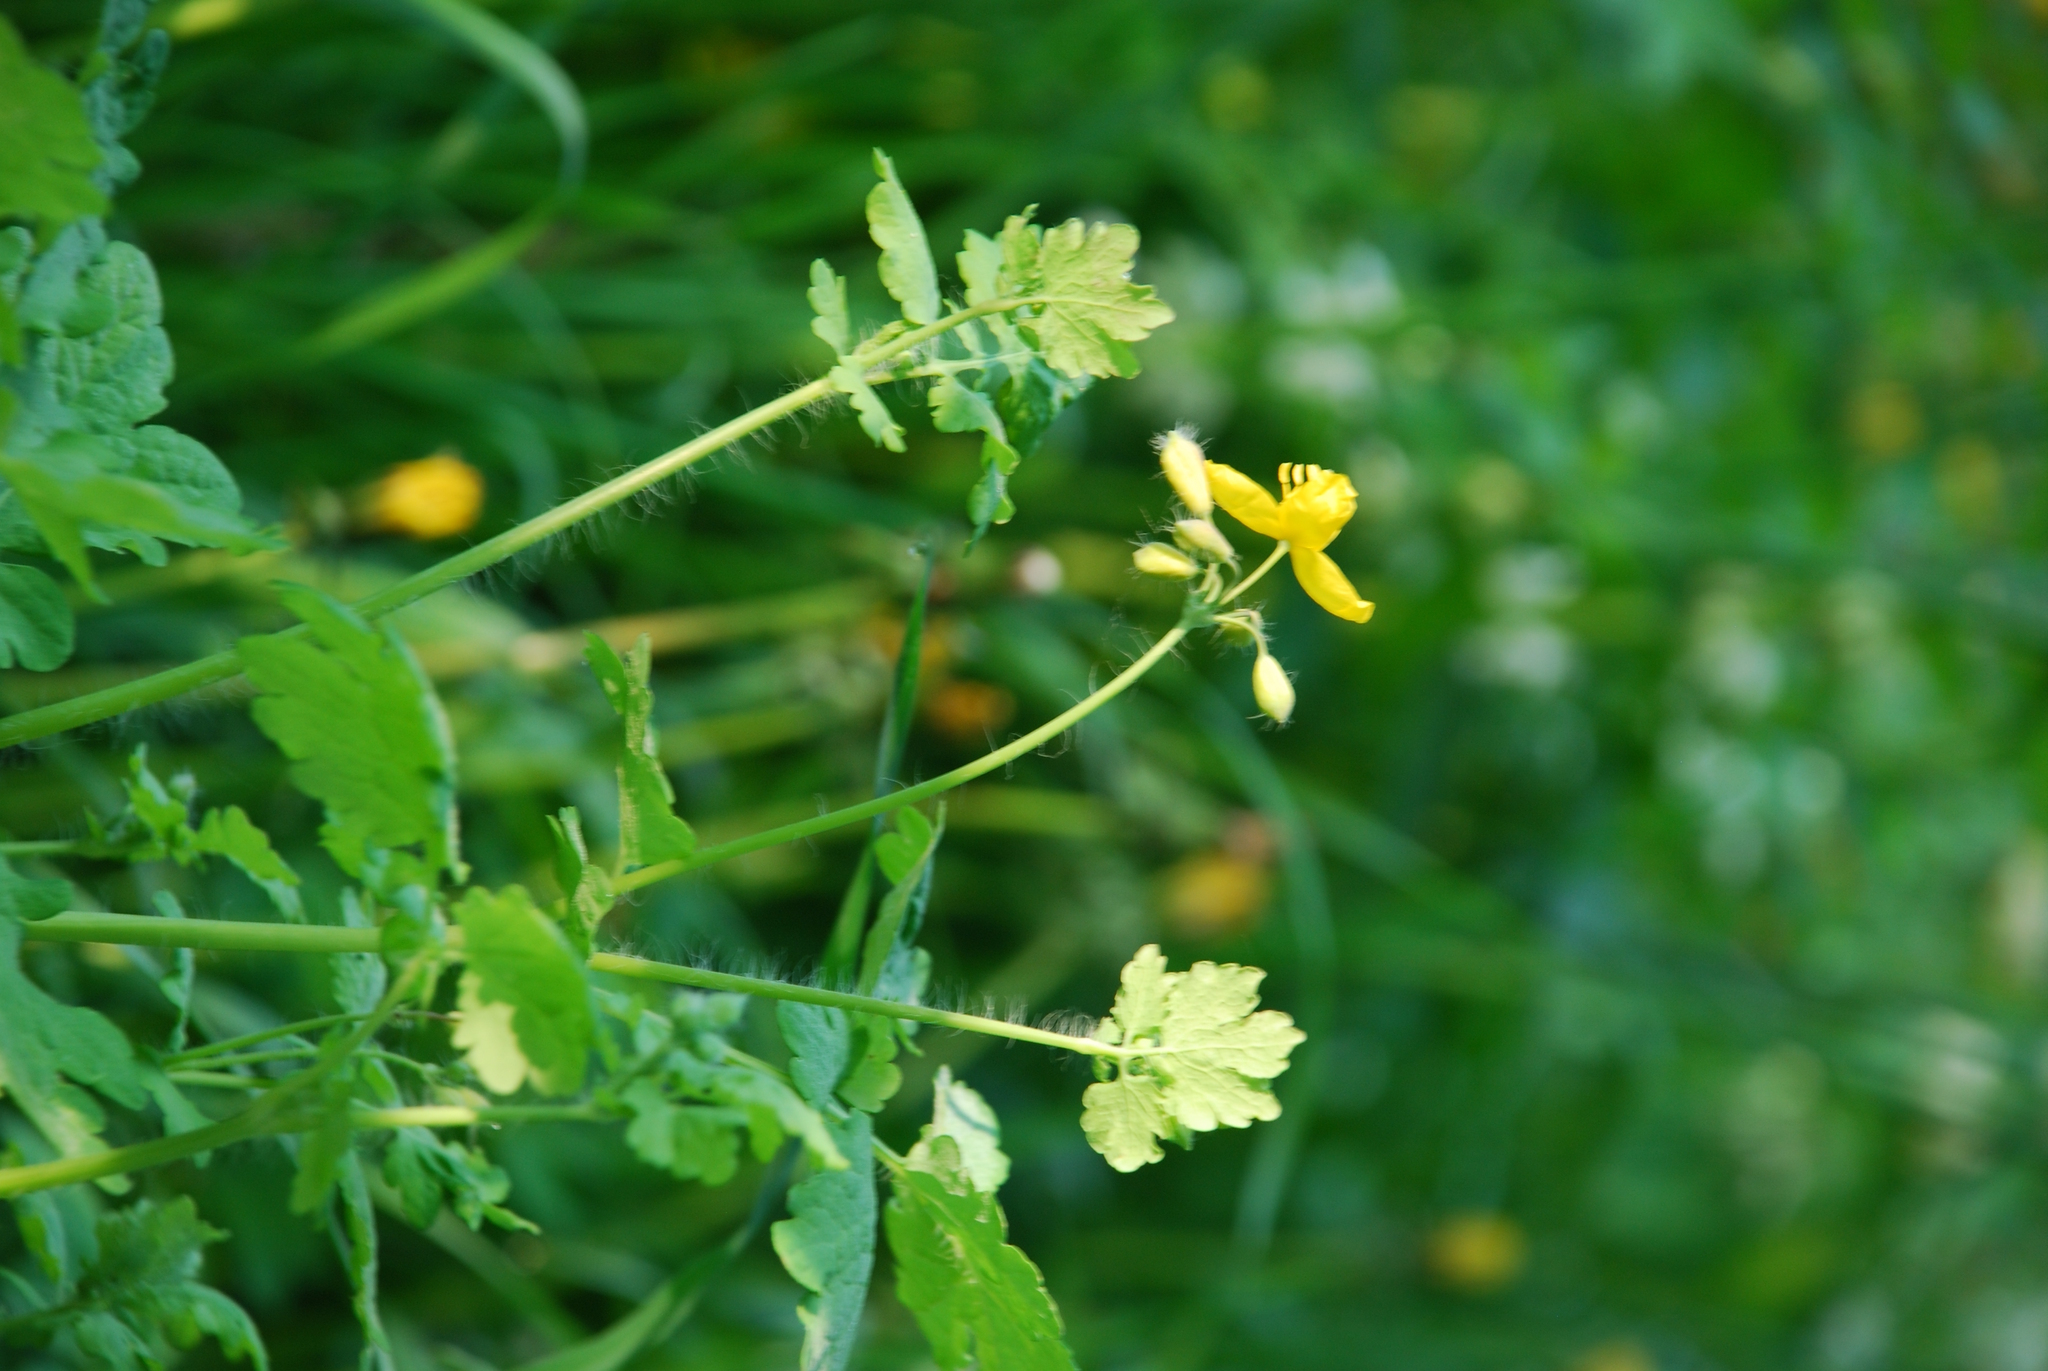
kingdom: Plantae
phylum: Tracheophyta
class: Magnoliopsida
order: Ranunculales
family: Papaveraceae
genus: Chelidonium
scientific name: Chelidonium majus
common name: Greater celandine
